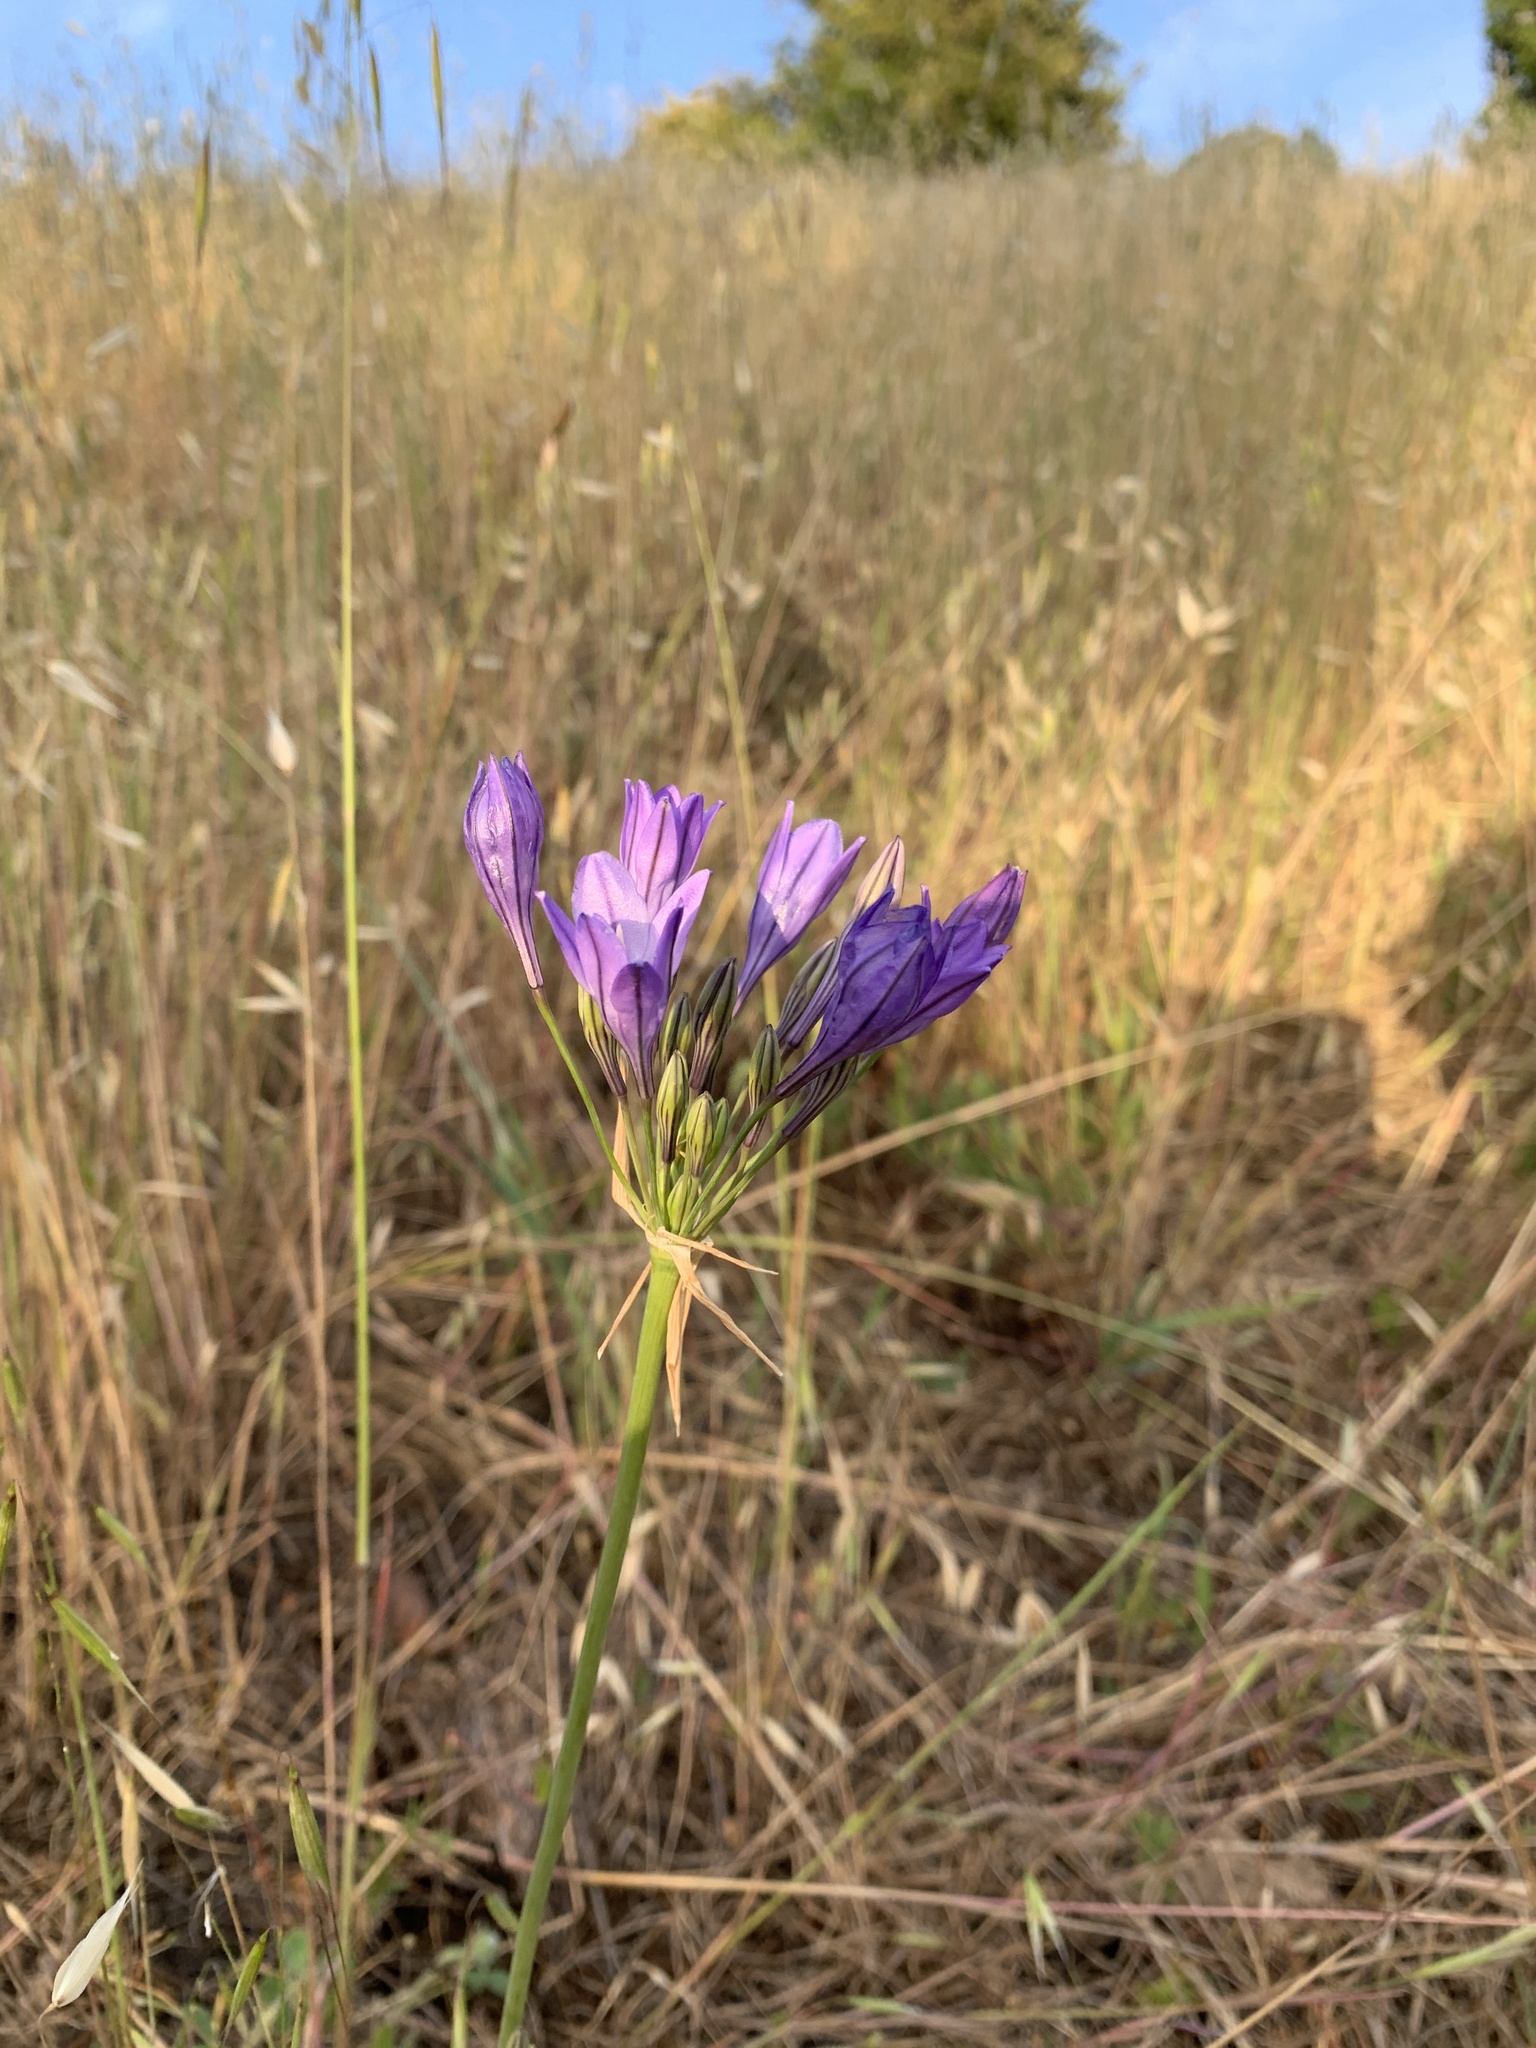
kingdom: Plantae
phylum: Tracheophyta
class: Liliopsida
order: Asparagales
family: Asparagaceae
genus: Triteleia
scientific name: Triteleia laxa
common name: Triplet-lily
